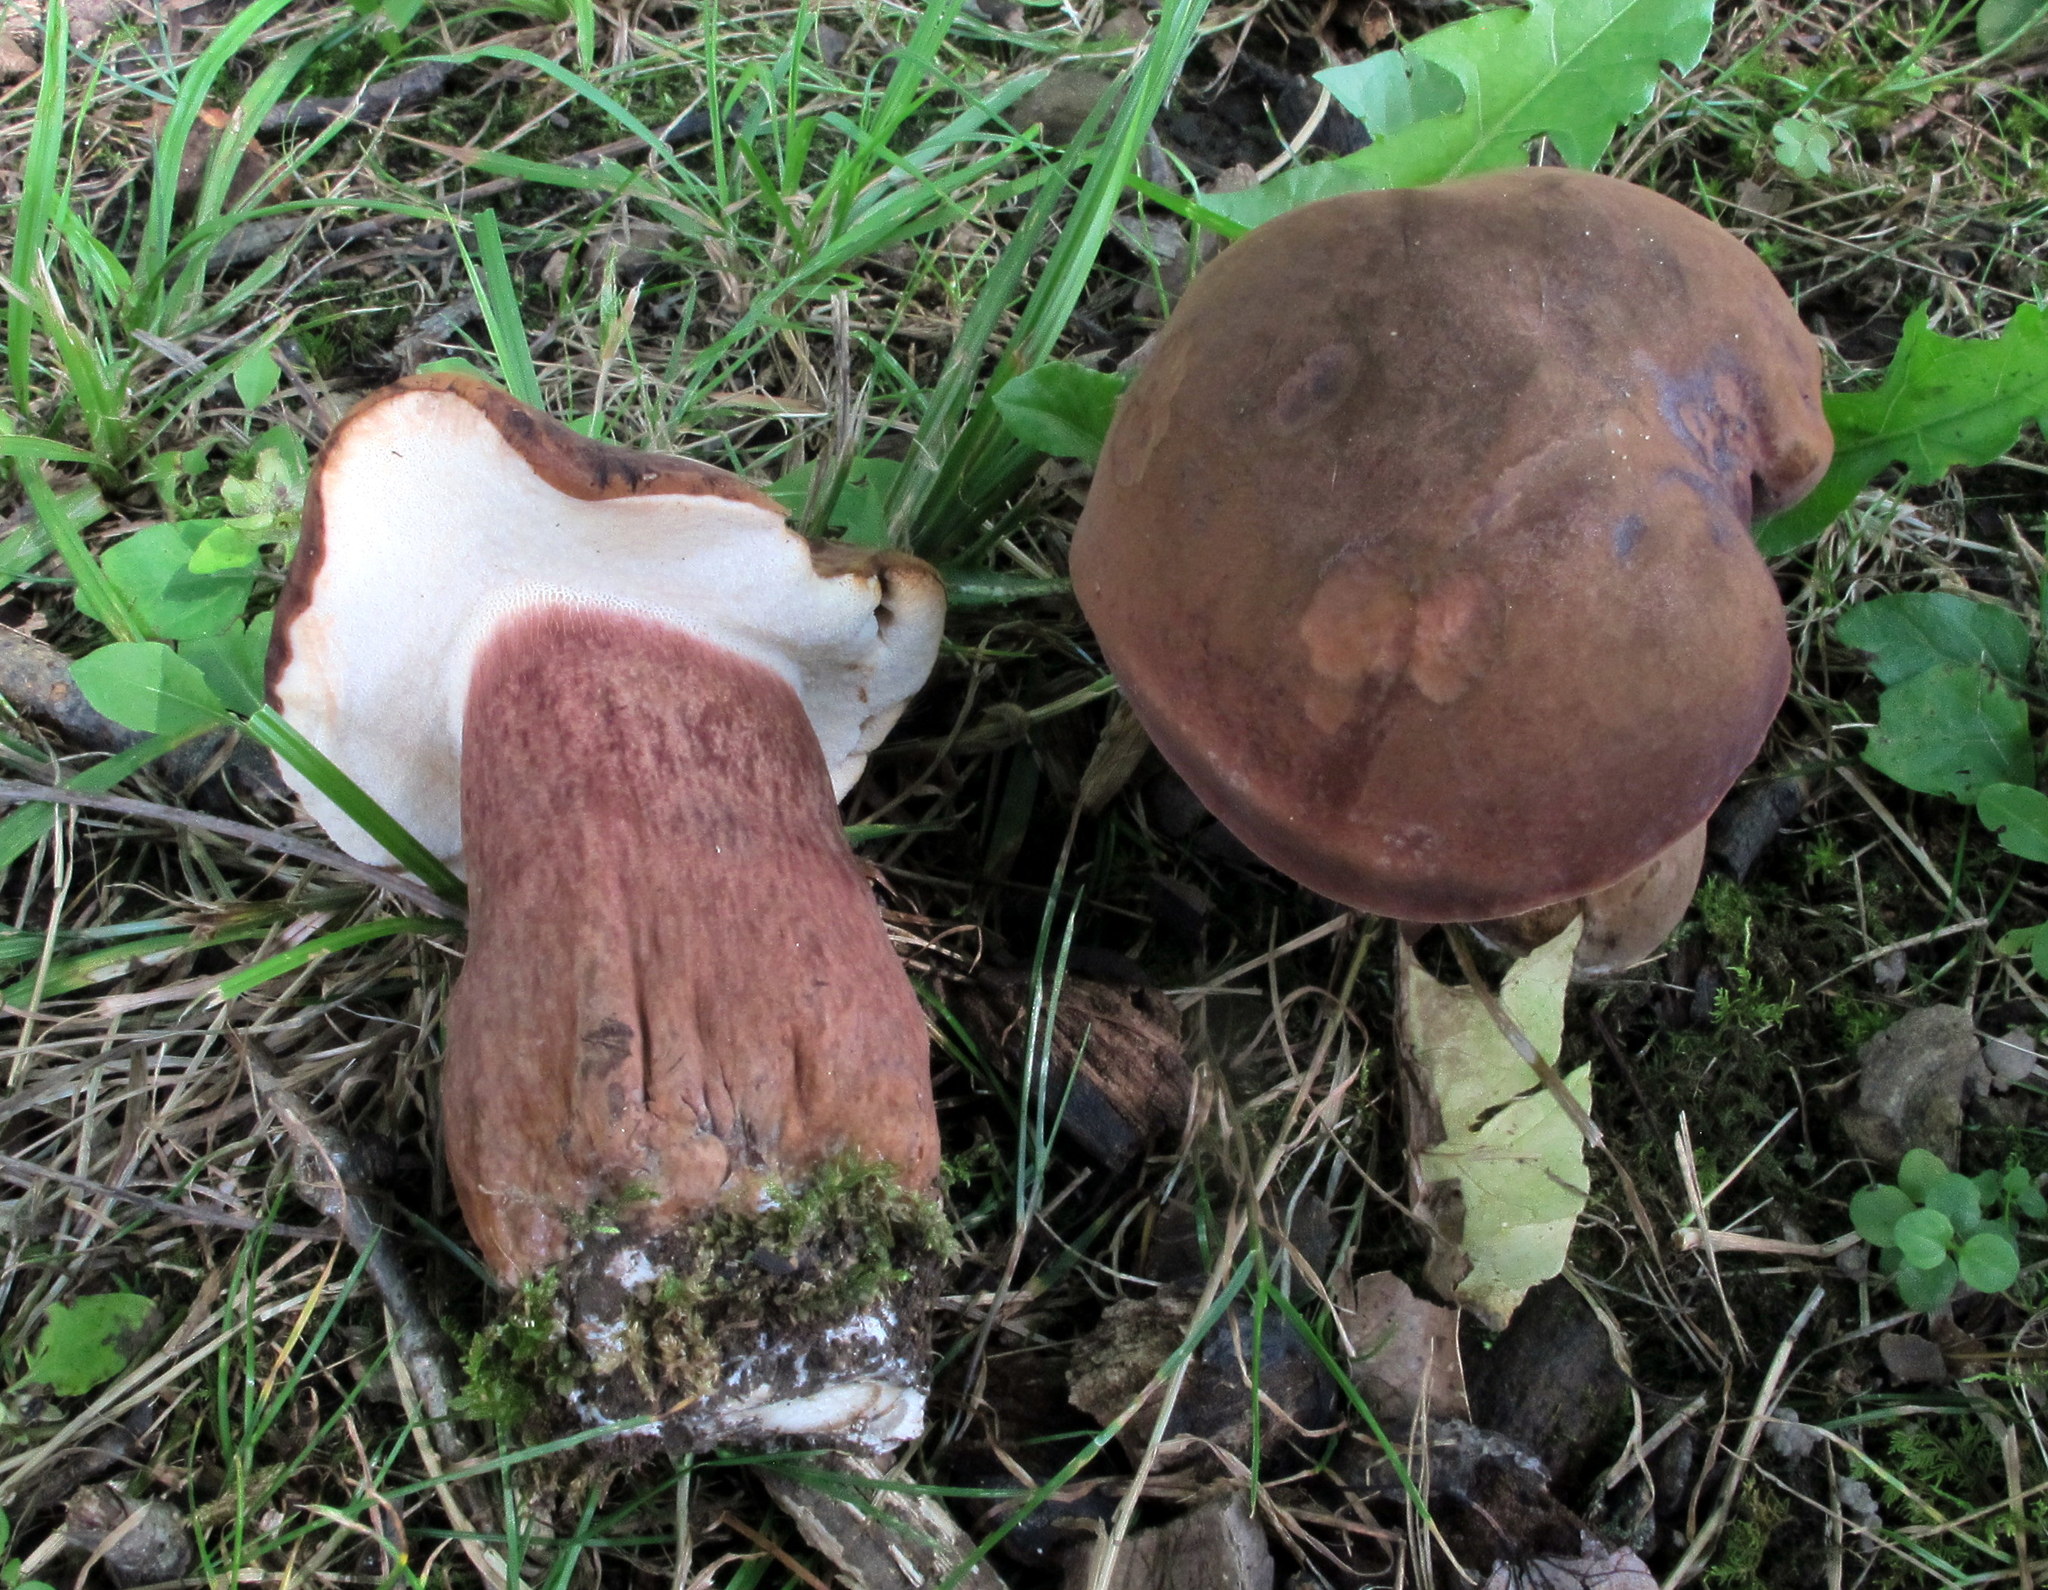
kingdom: Fungi
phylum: Basidiomycota
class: Agaricomycetes
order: Boletales
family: Boletaceae
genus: Tylopilus
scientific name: Tylopilus badiceps
